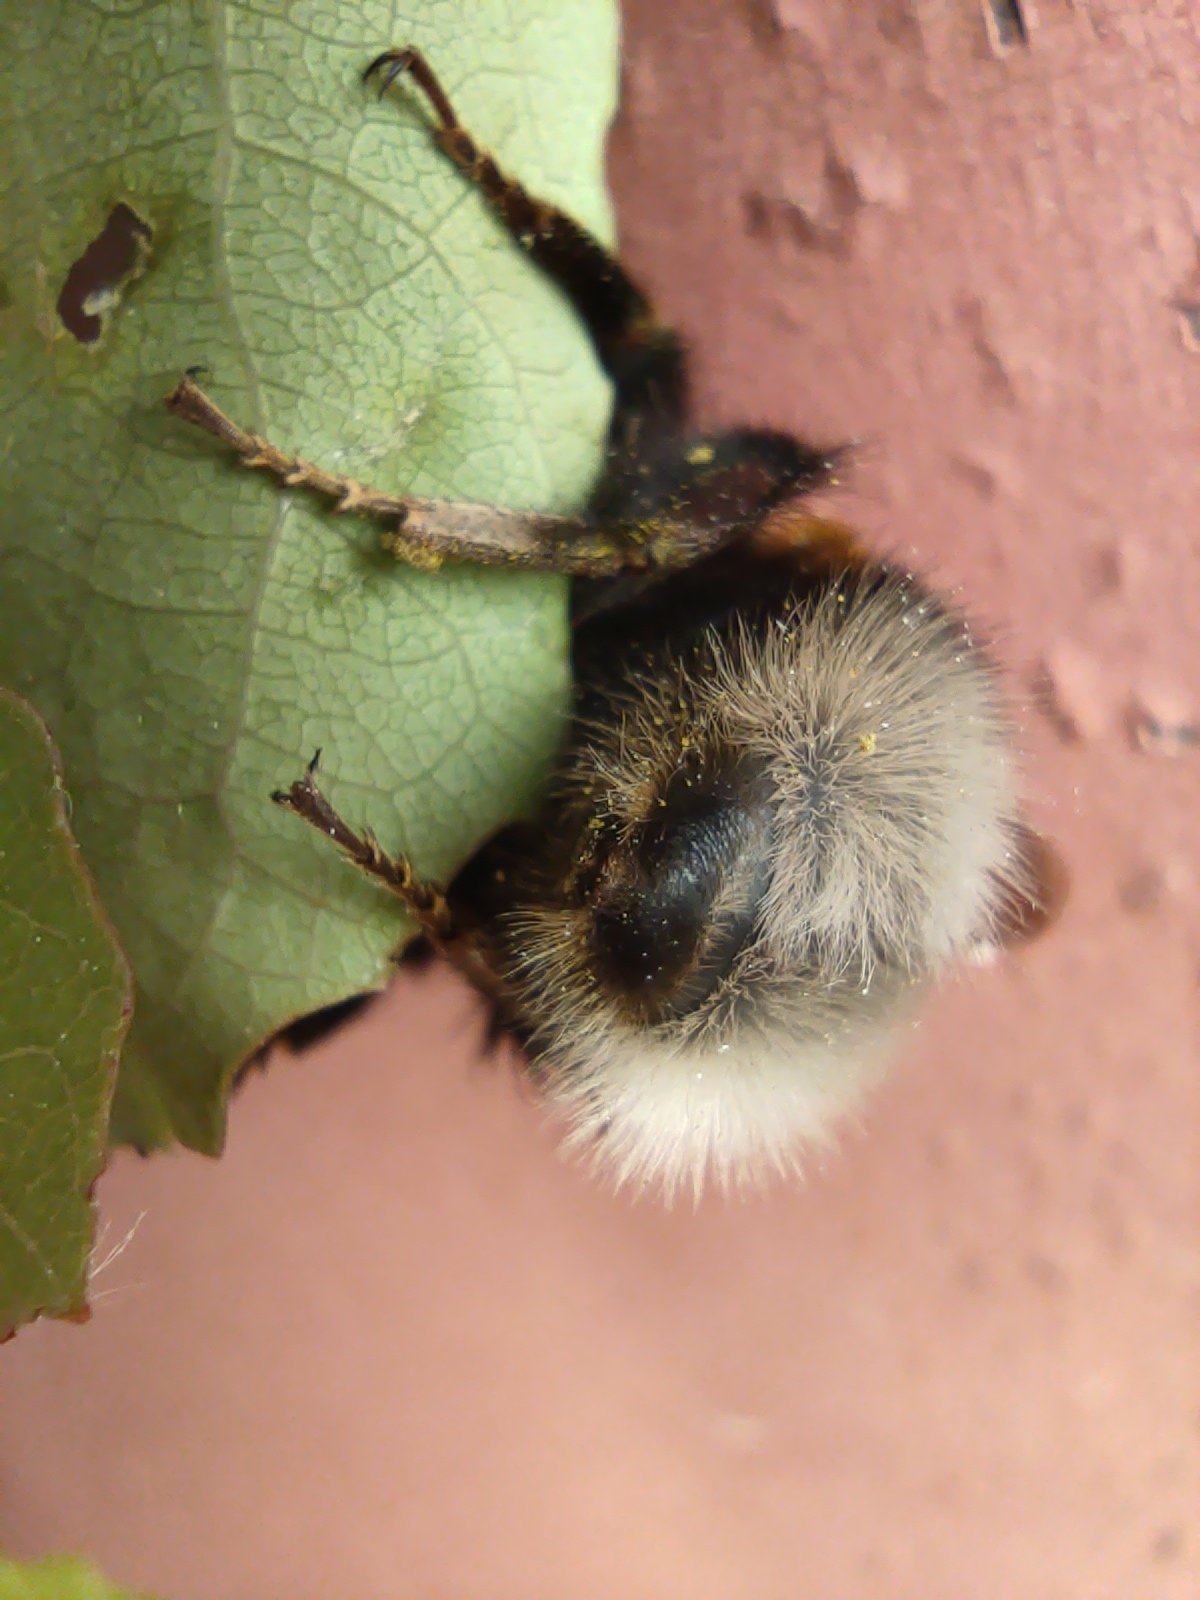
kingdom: Animalia
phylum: Arthropoda
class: Insecta
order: Hymenoptera
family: Apidae
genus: Bombus
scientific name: Bombus
